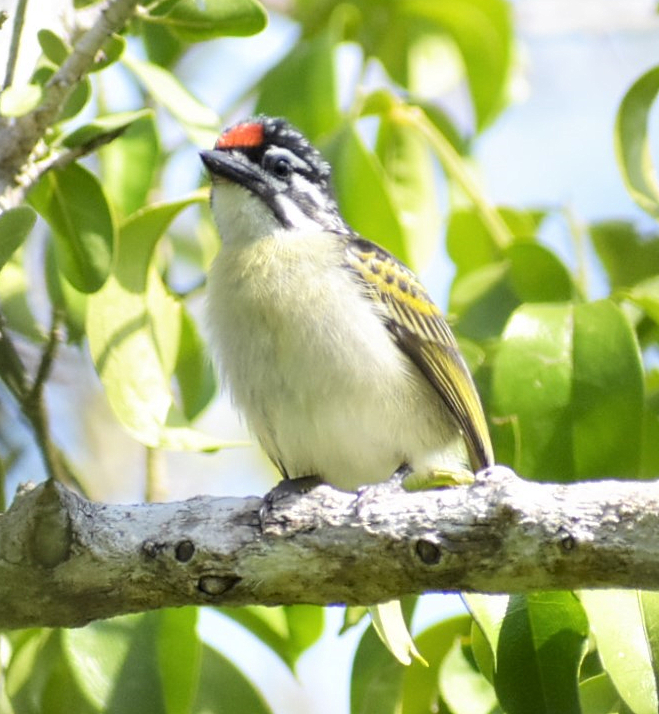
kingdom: Animalia
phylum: Chordata
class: Aves
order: Piciformes
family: Lybiidae
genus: Pogoniulus
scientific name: Pogoniulus pusillus
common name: Red-fronted tinkerbird
